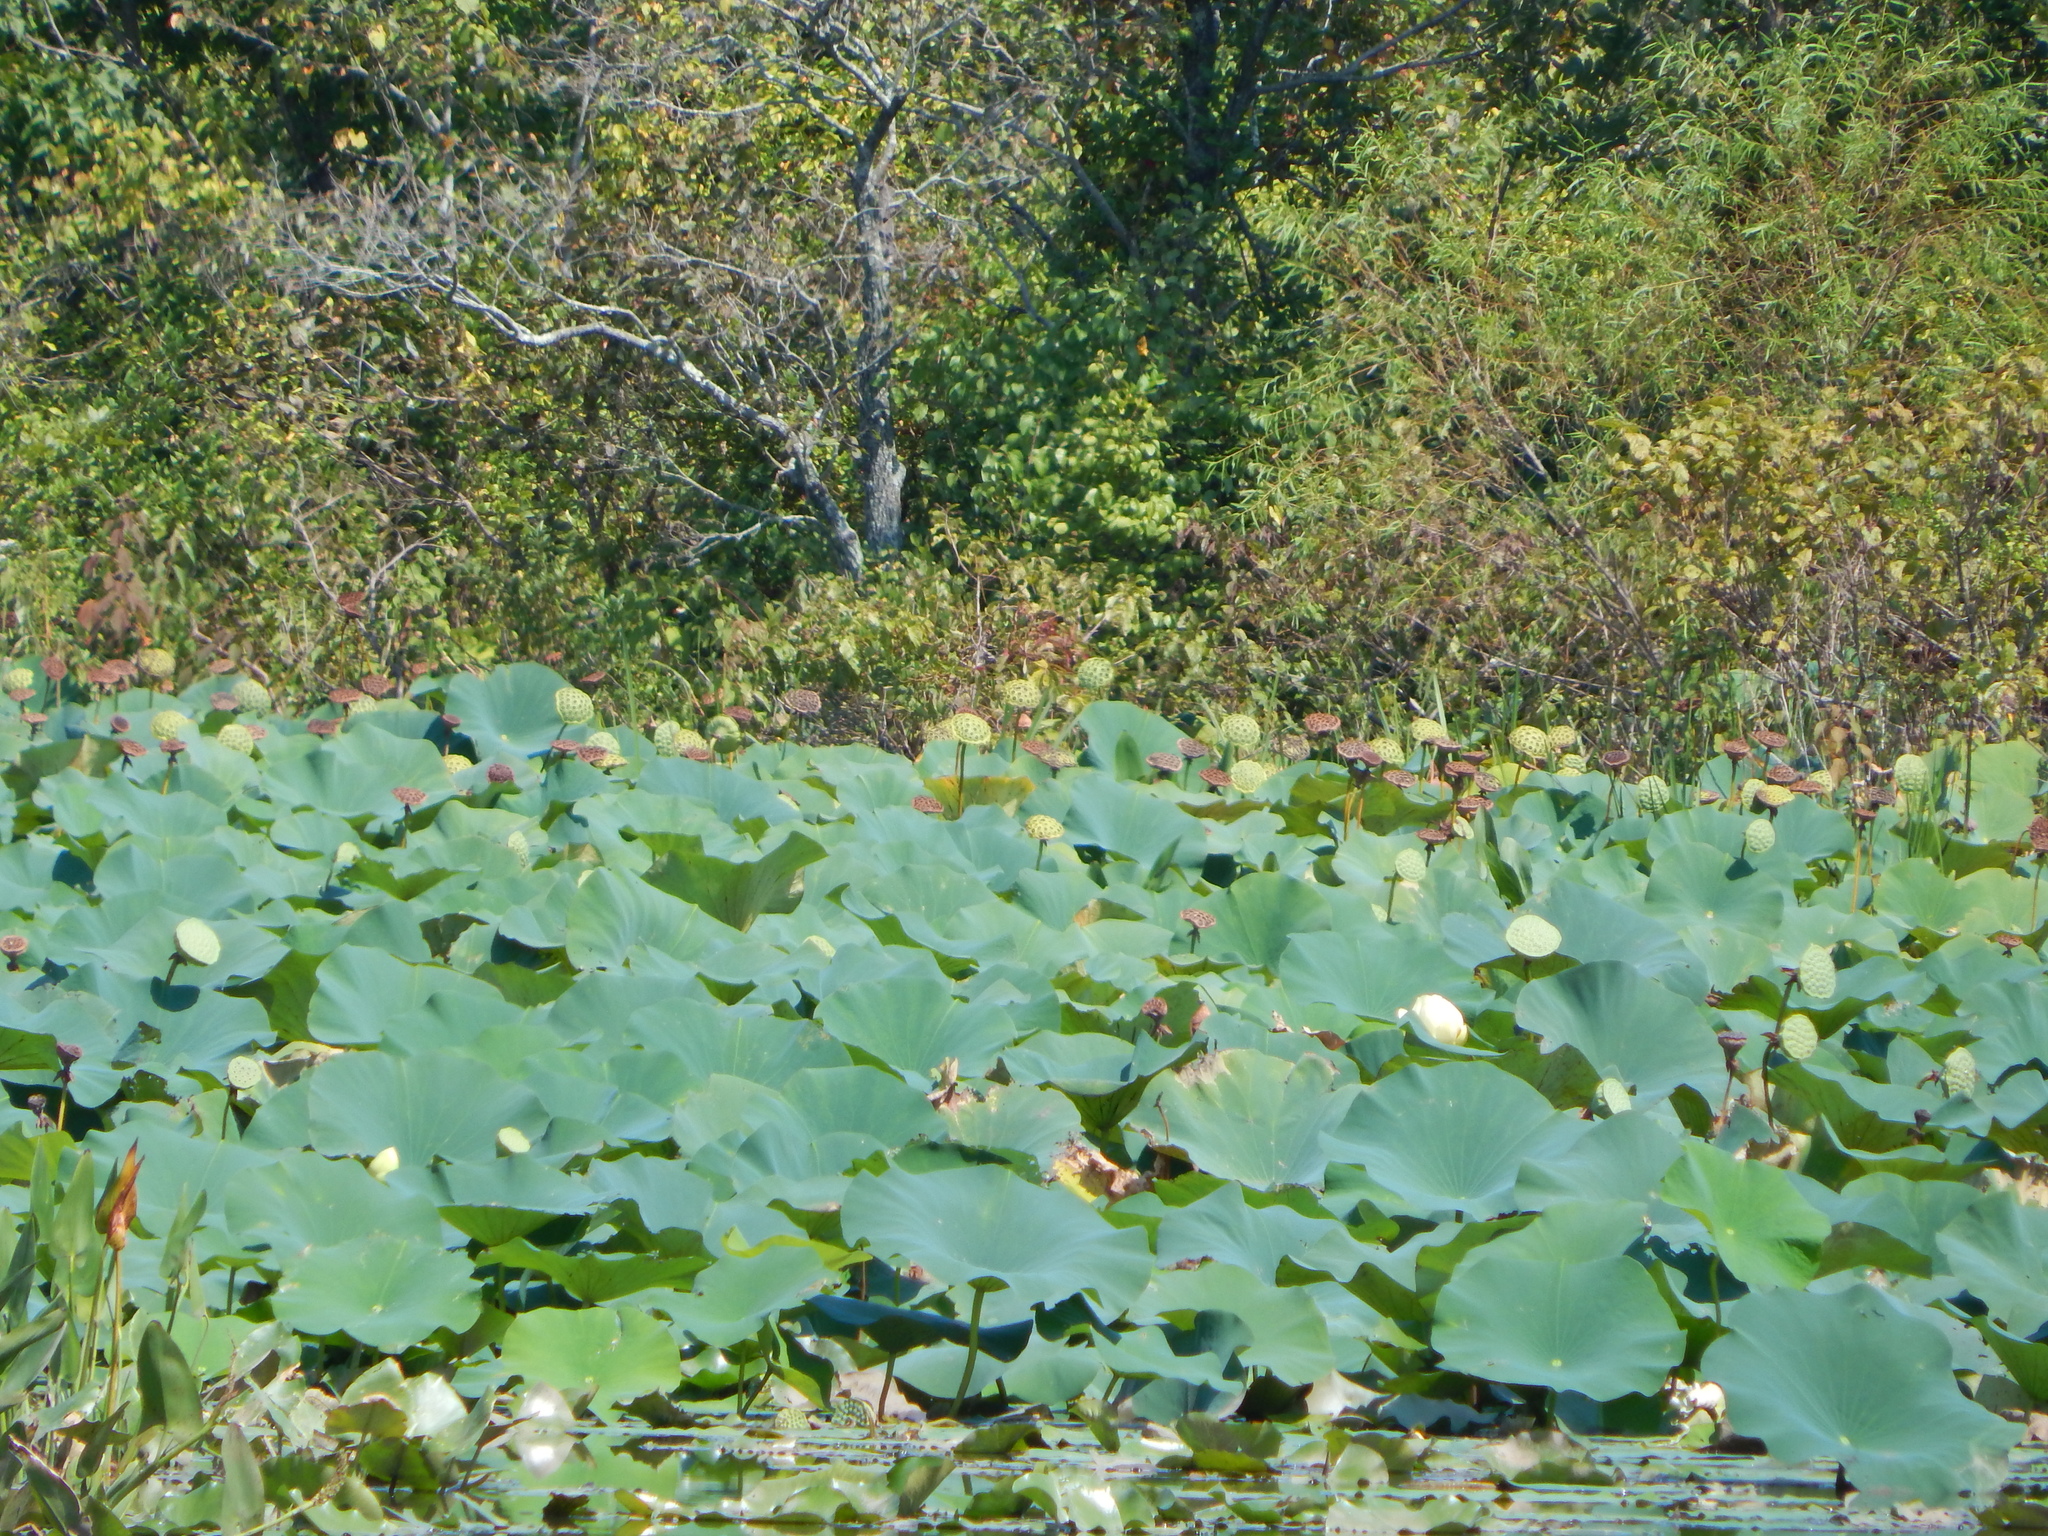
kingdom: Plantae
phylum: Tracheophyta
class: Magnoliopsida
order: Proteales
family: Nelumbonaceae
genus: Nelumbo
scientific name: Nelumbo lutea
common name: American lotus
